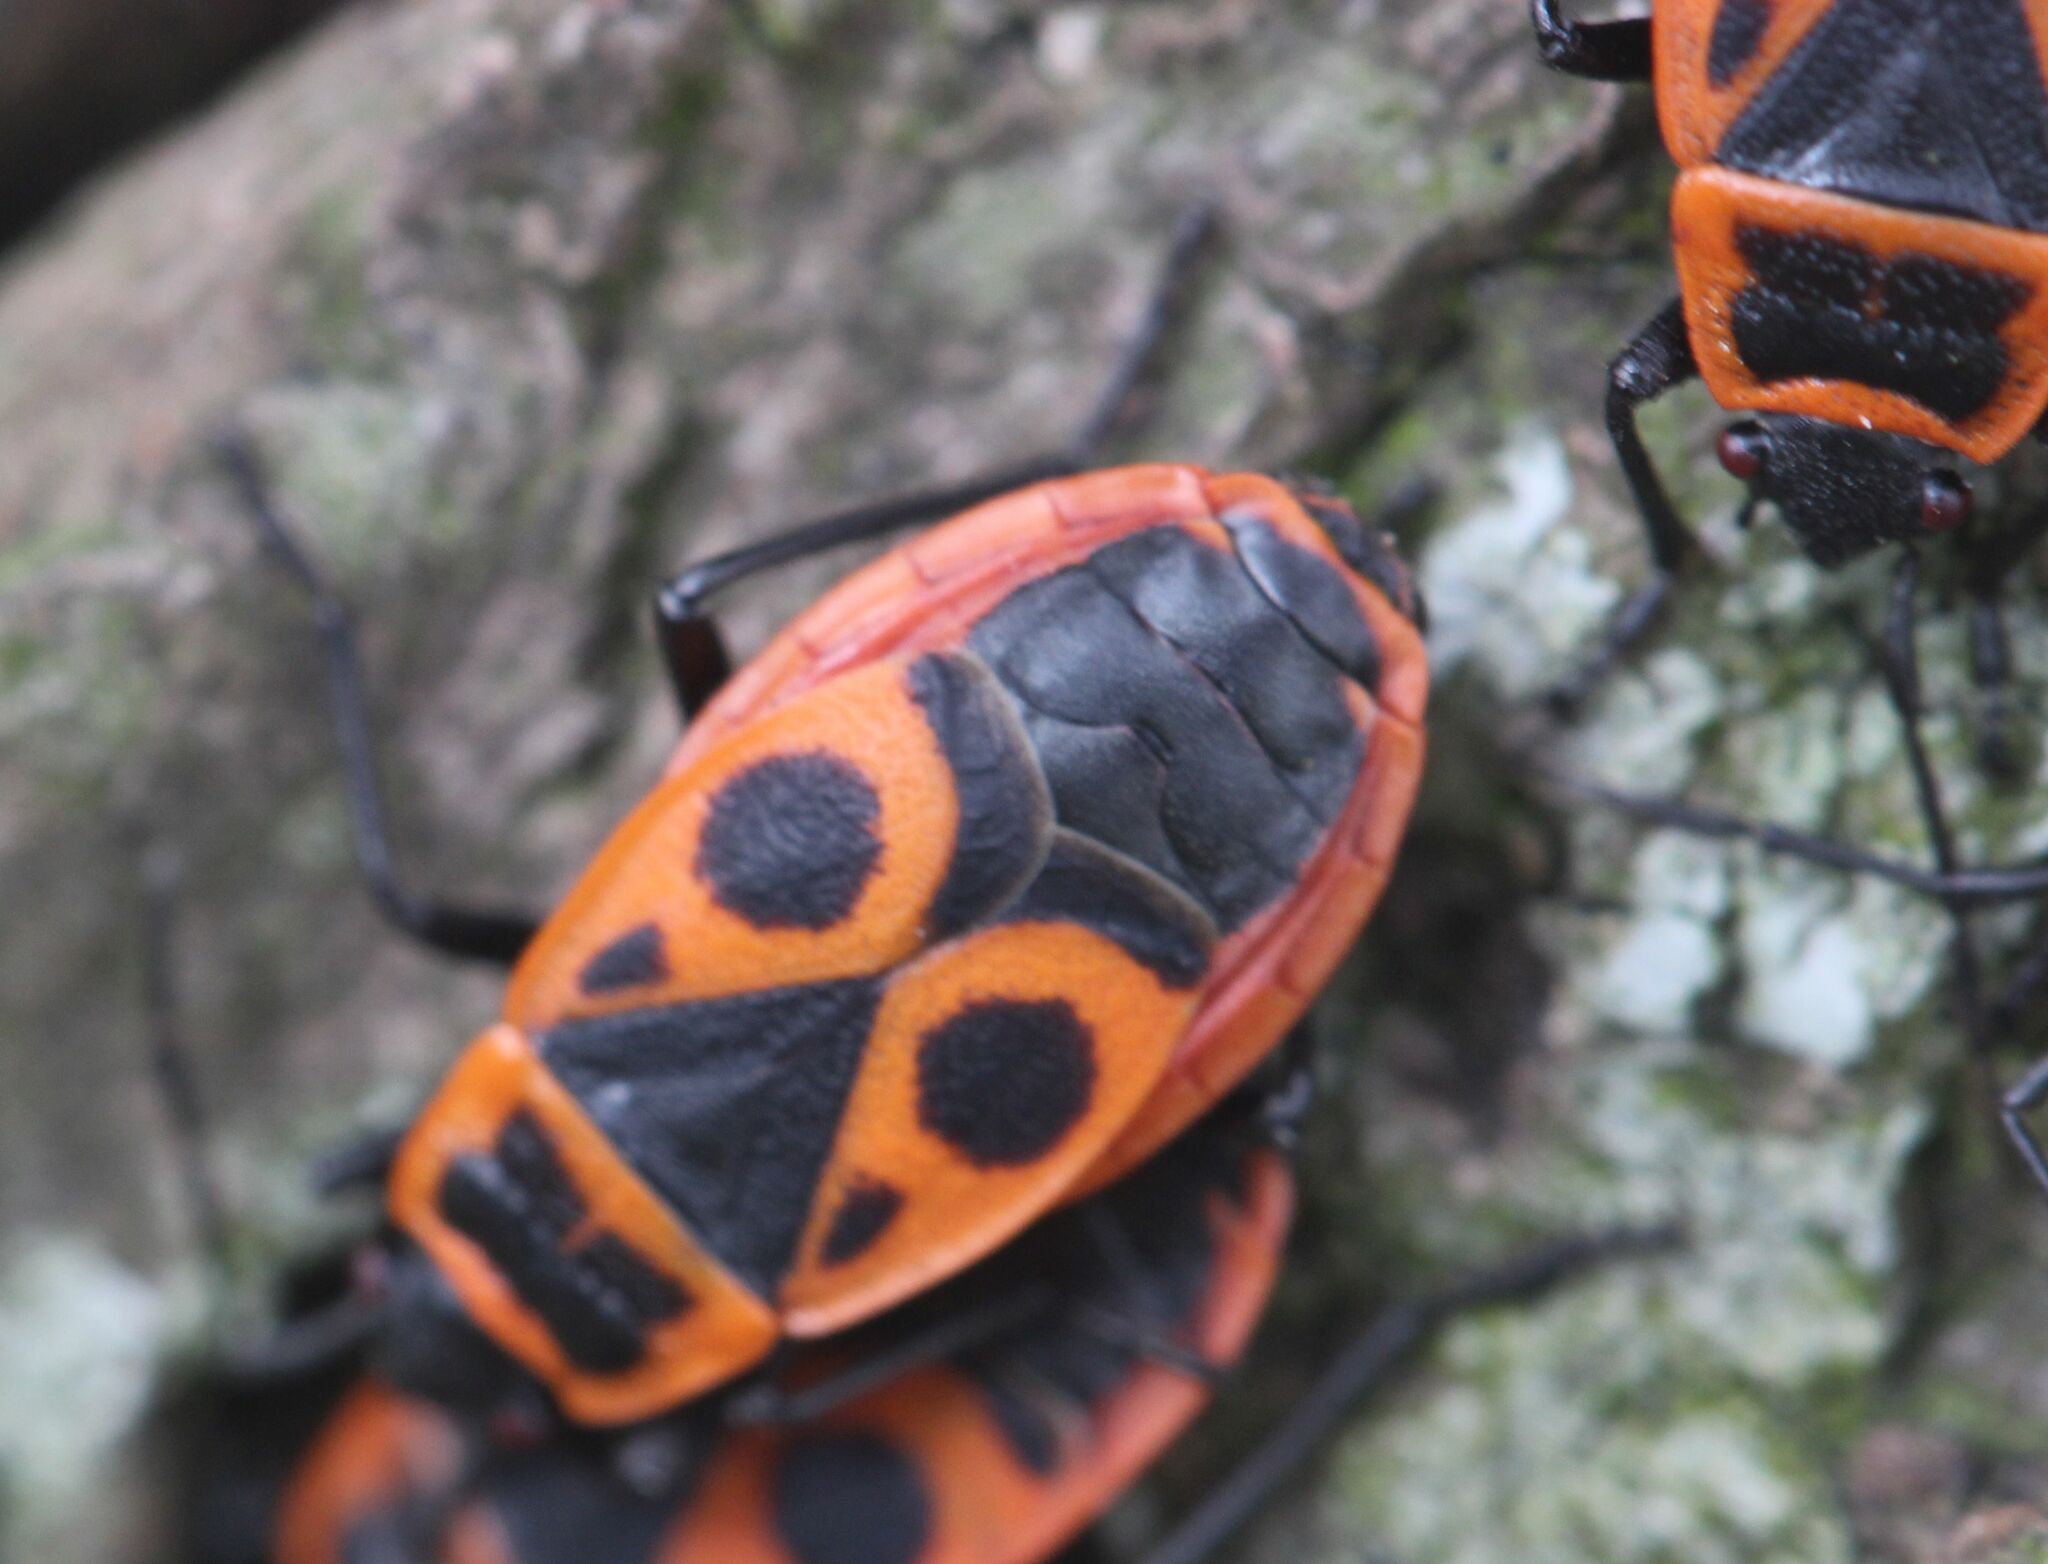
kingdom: Animalia
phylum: Arthropoda
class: Insecta
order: Hemiptera
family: Pyrrhocoridae
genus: Pyrrhocoris
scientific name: Pyrrhocoris apterus
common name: Firebug
